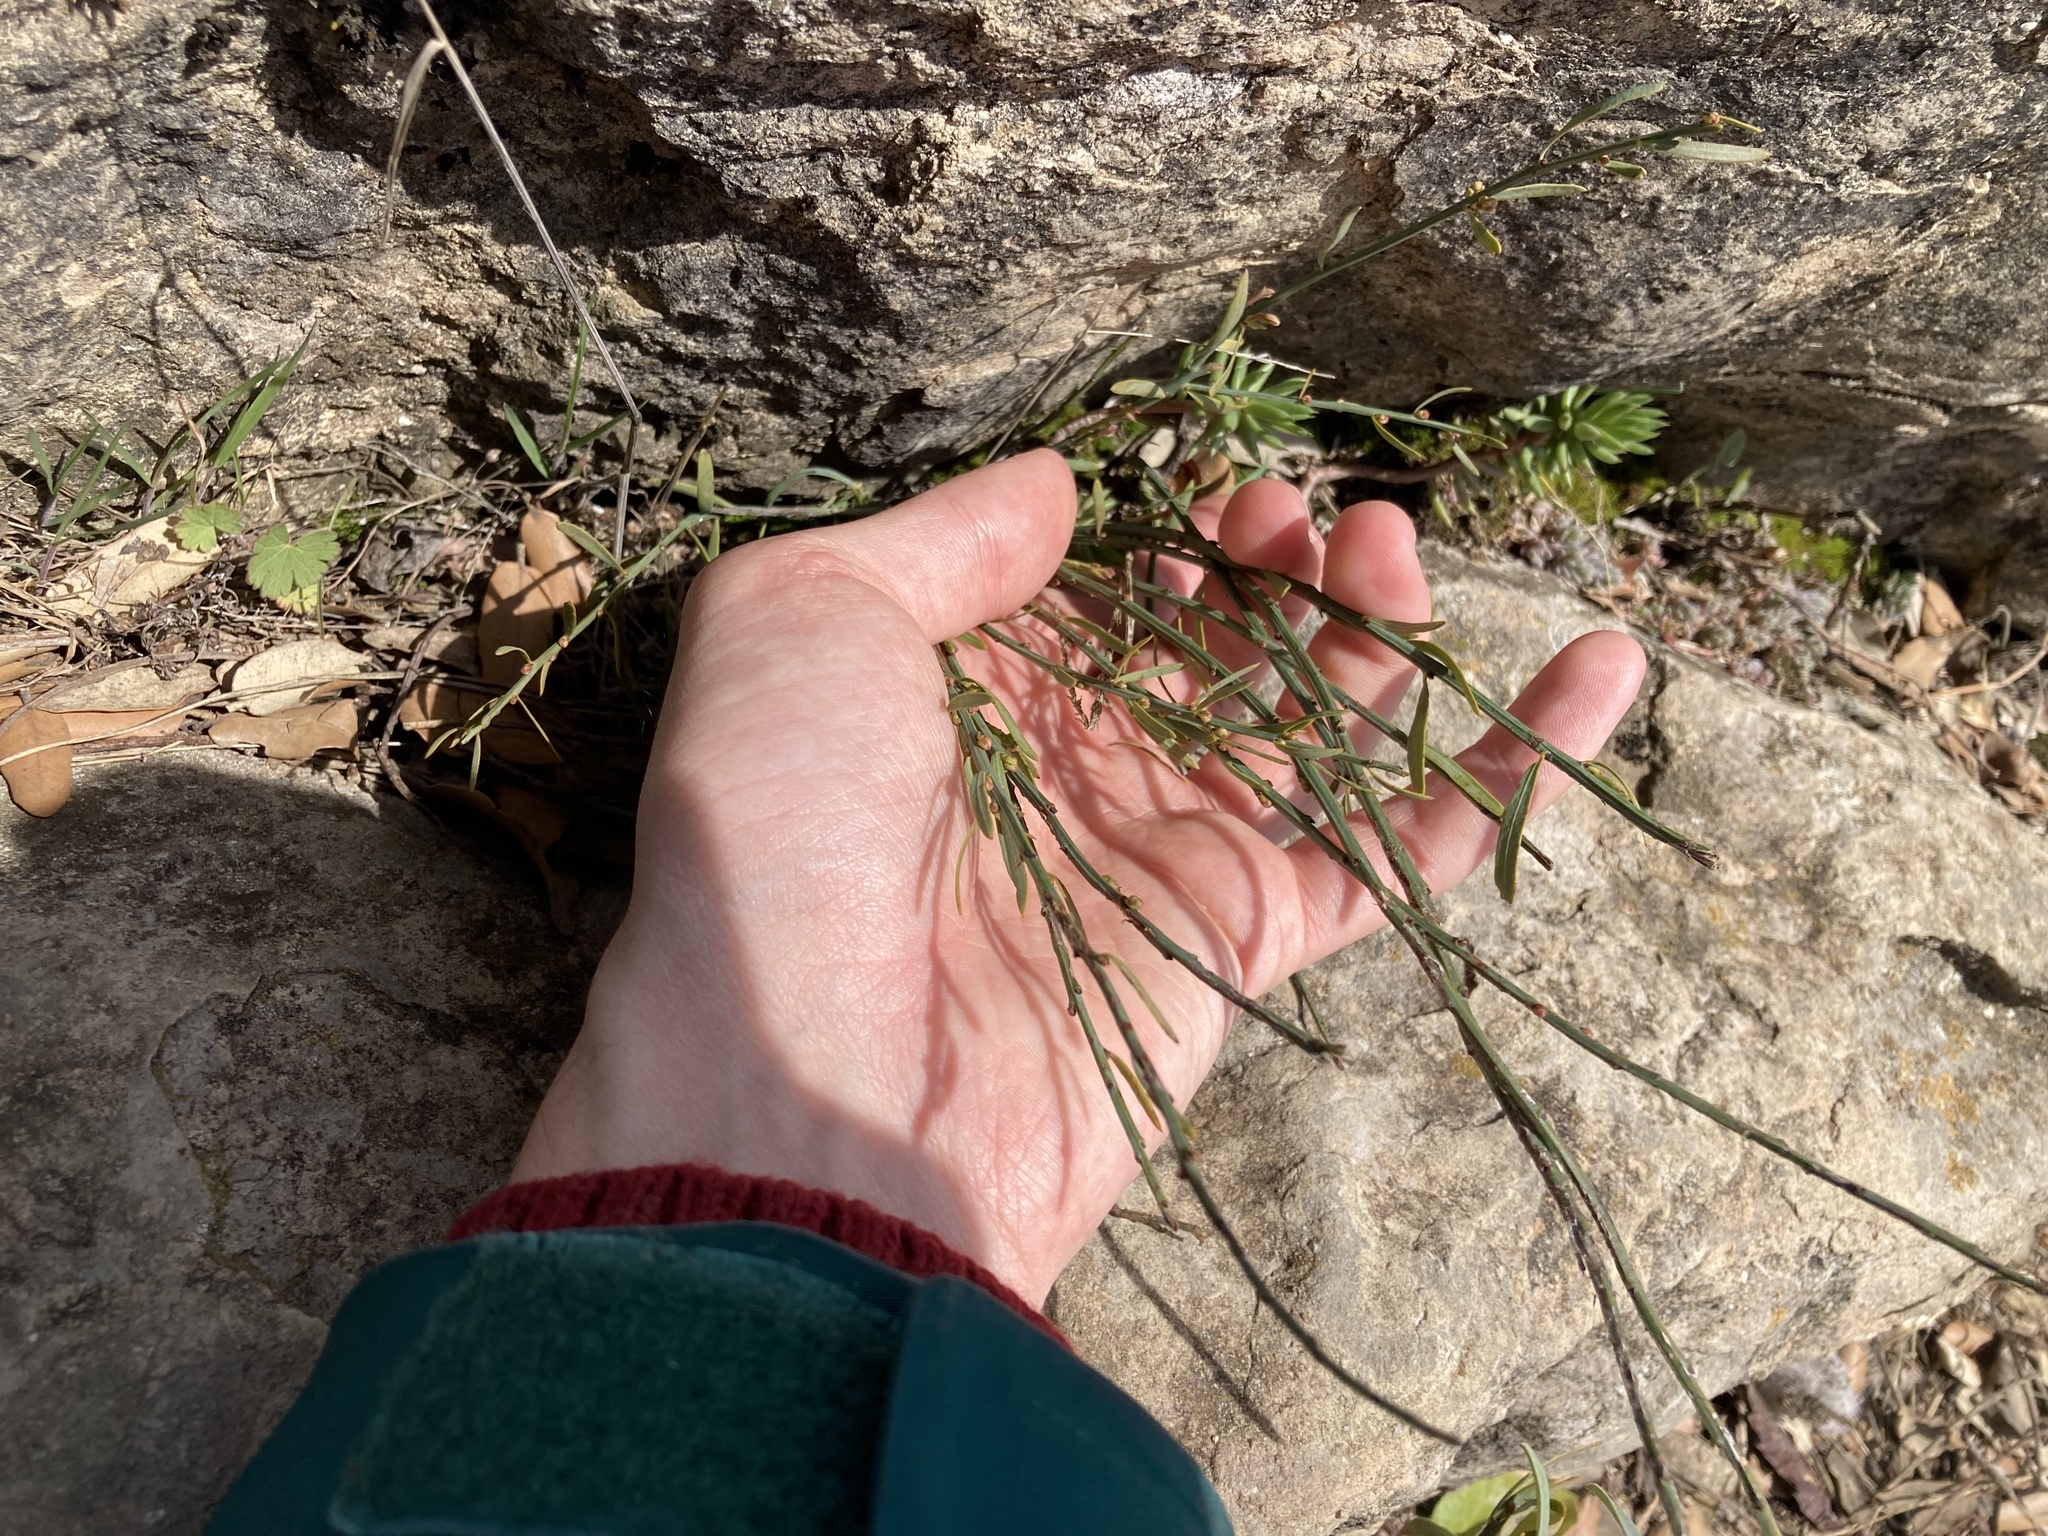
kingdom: Plantae
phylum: Tracheophyta
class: Magnoliopsida
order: Santalales
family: Santalaceae
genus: Osyris
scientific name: Osyris alba
